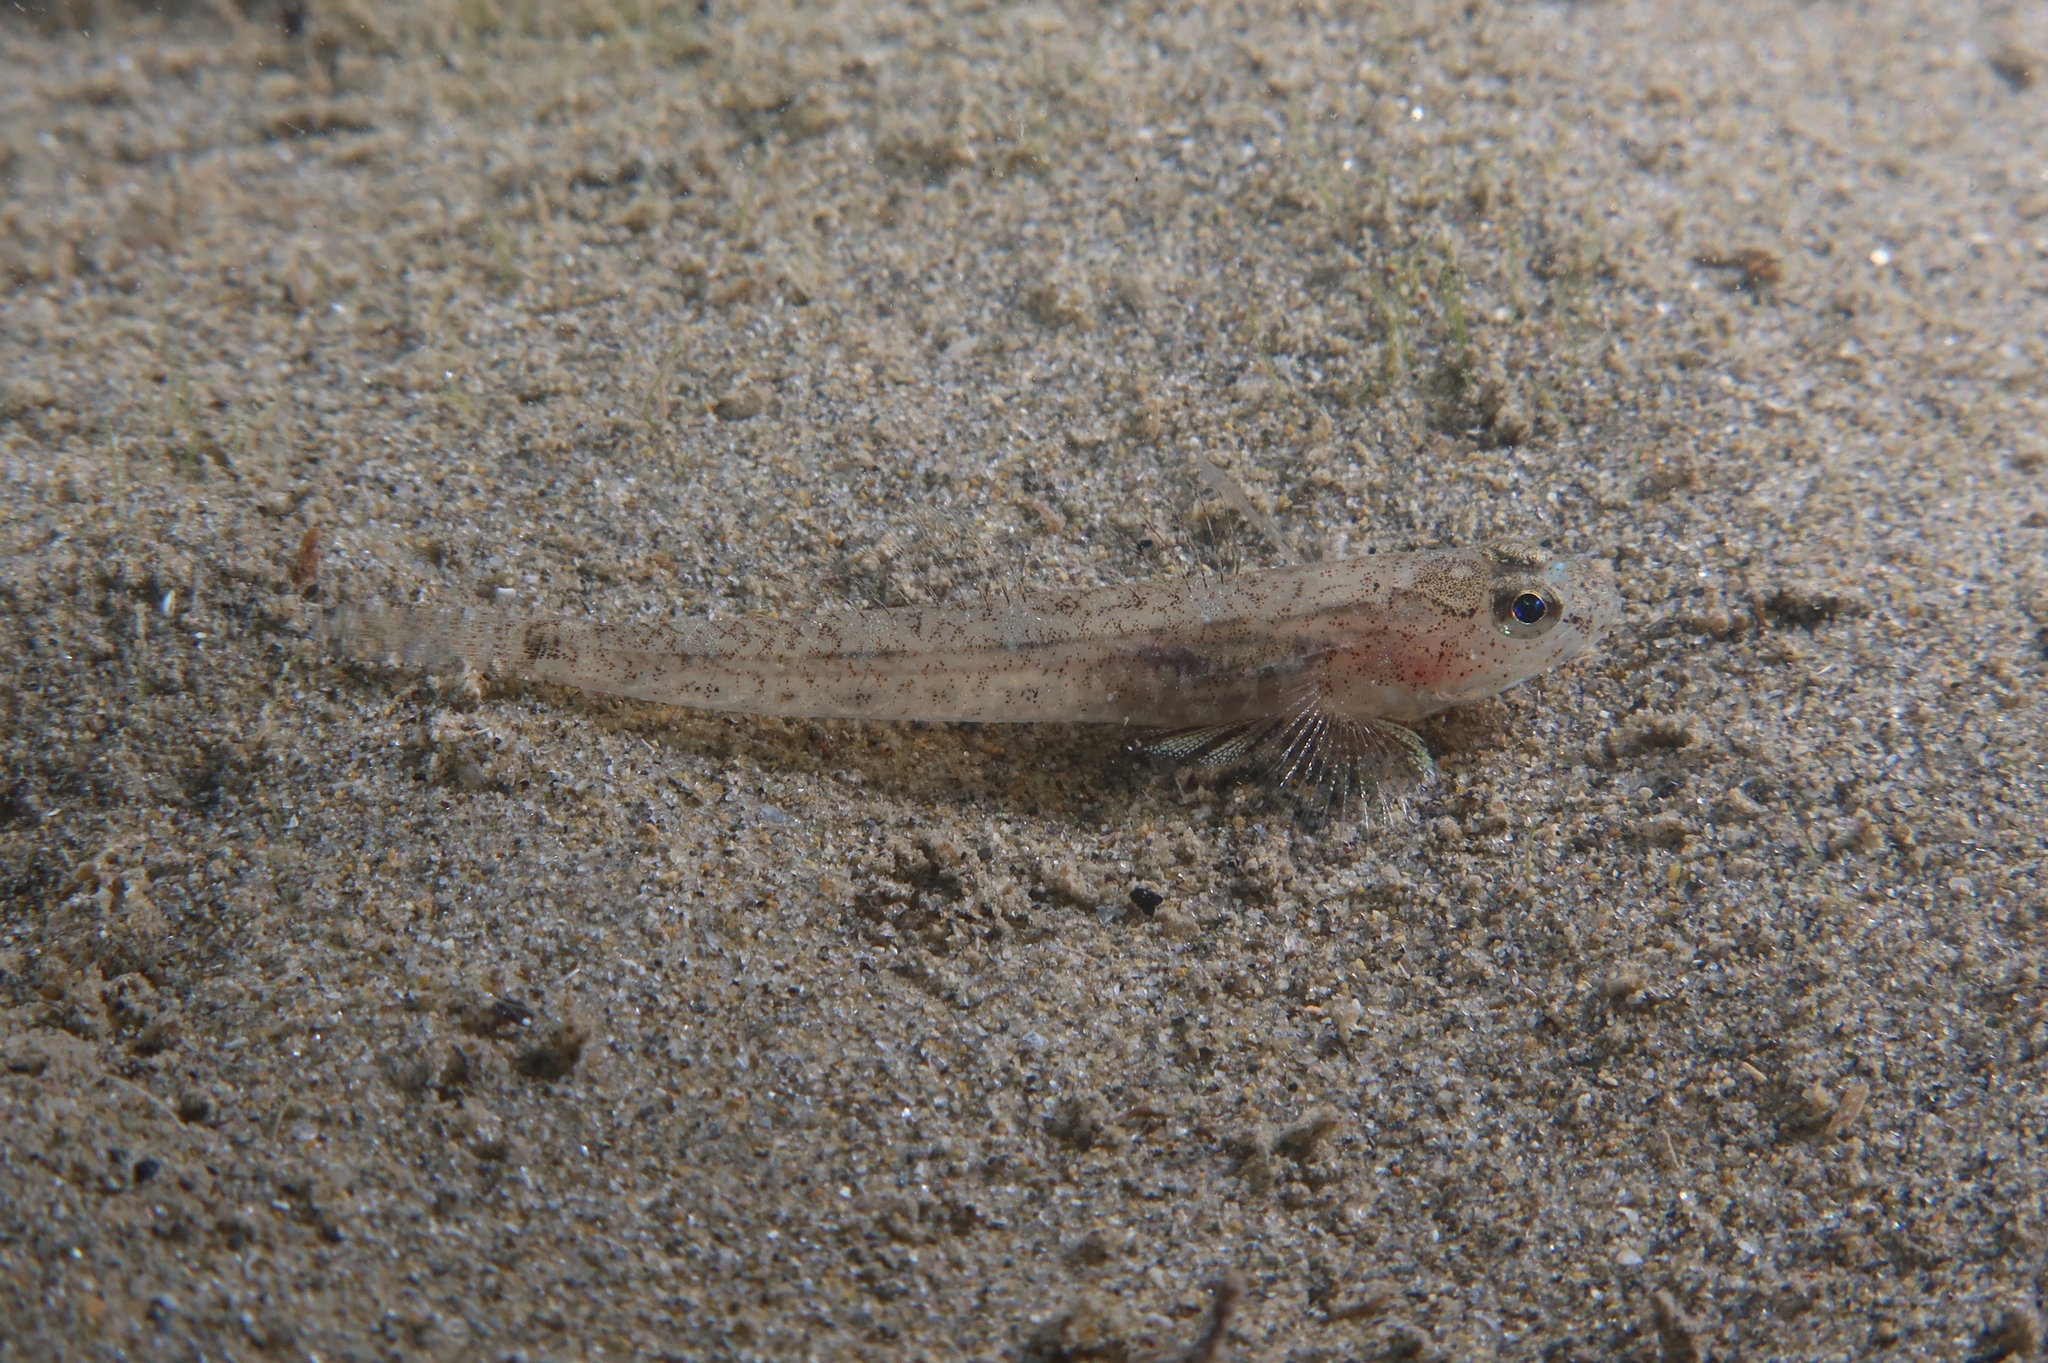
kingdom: Animalia
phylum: Chordata
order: Perciformes
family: Gobiidae
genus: Pomatoschistus
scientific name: Pomatoschistus marmoratus
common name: Marbled goby
